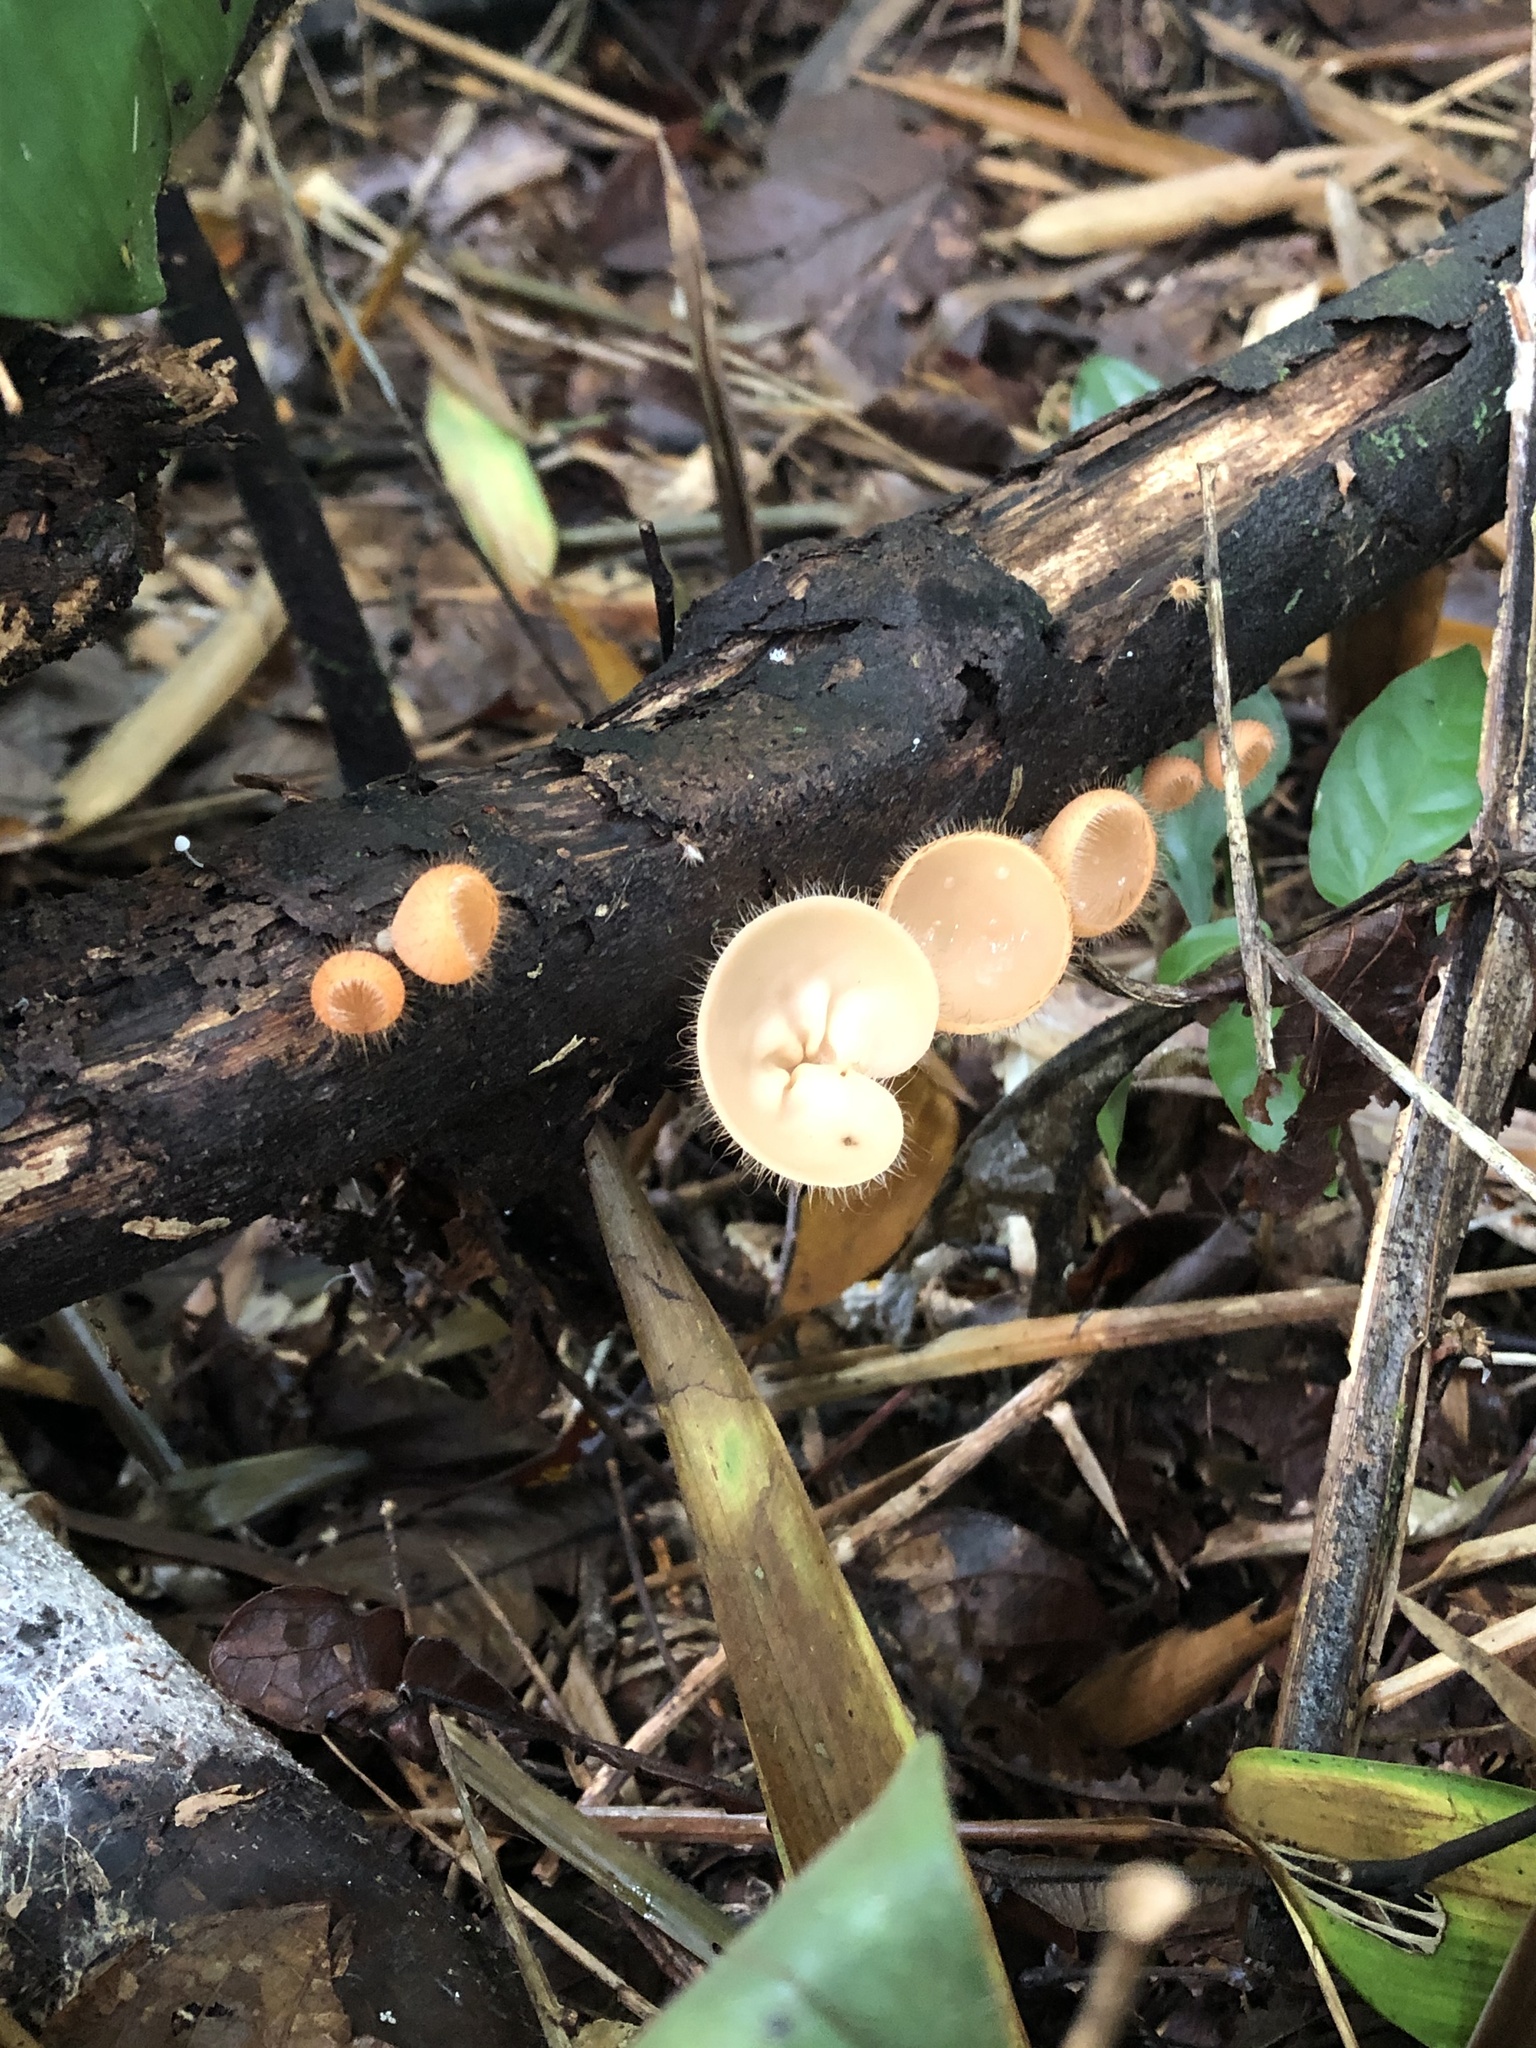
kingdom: Fungi
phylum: Ascomycota
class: Pezizomycetes
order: Pezizales
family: Sarcoscyphaceae
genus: Cookeina
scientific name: Cookeina tricholoma
